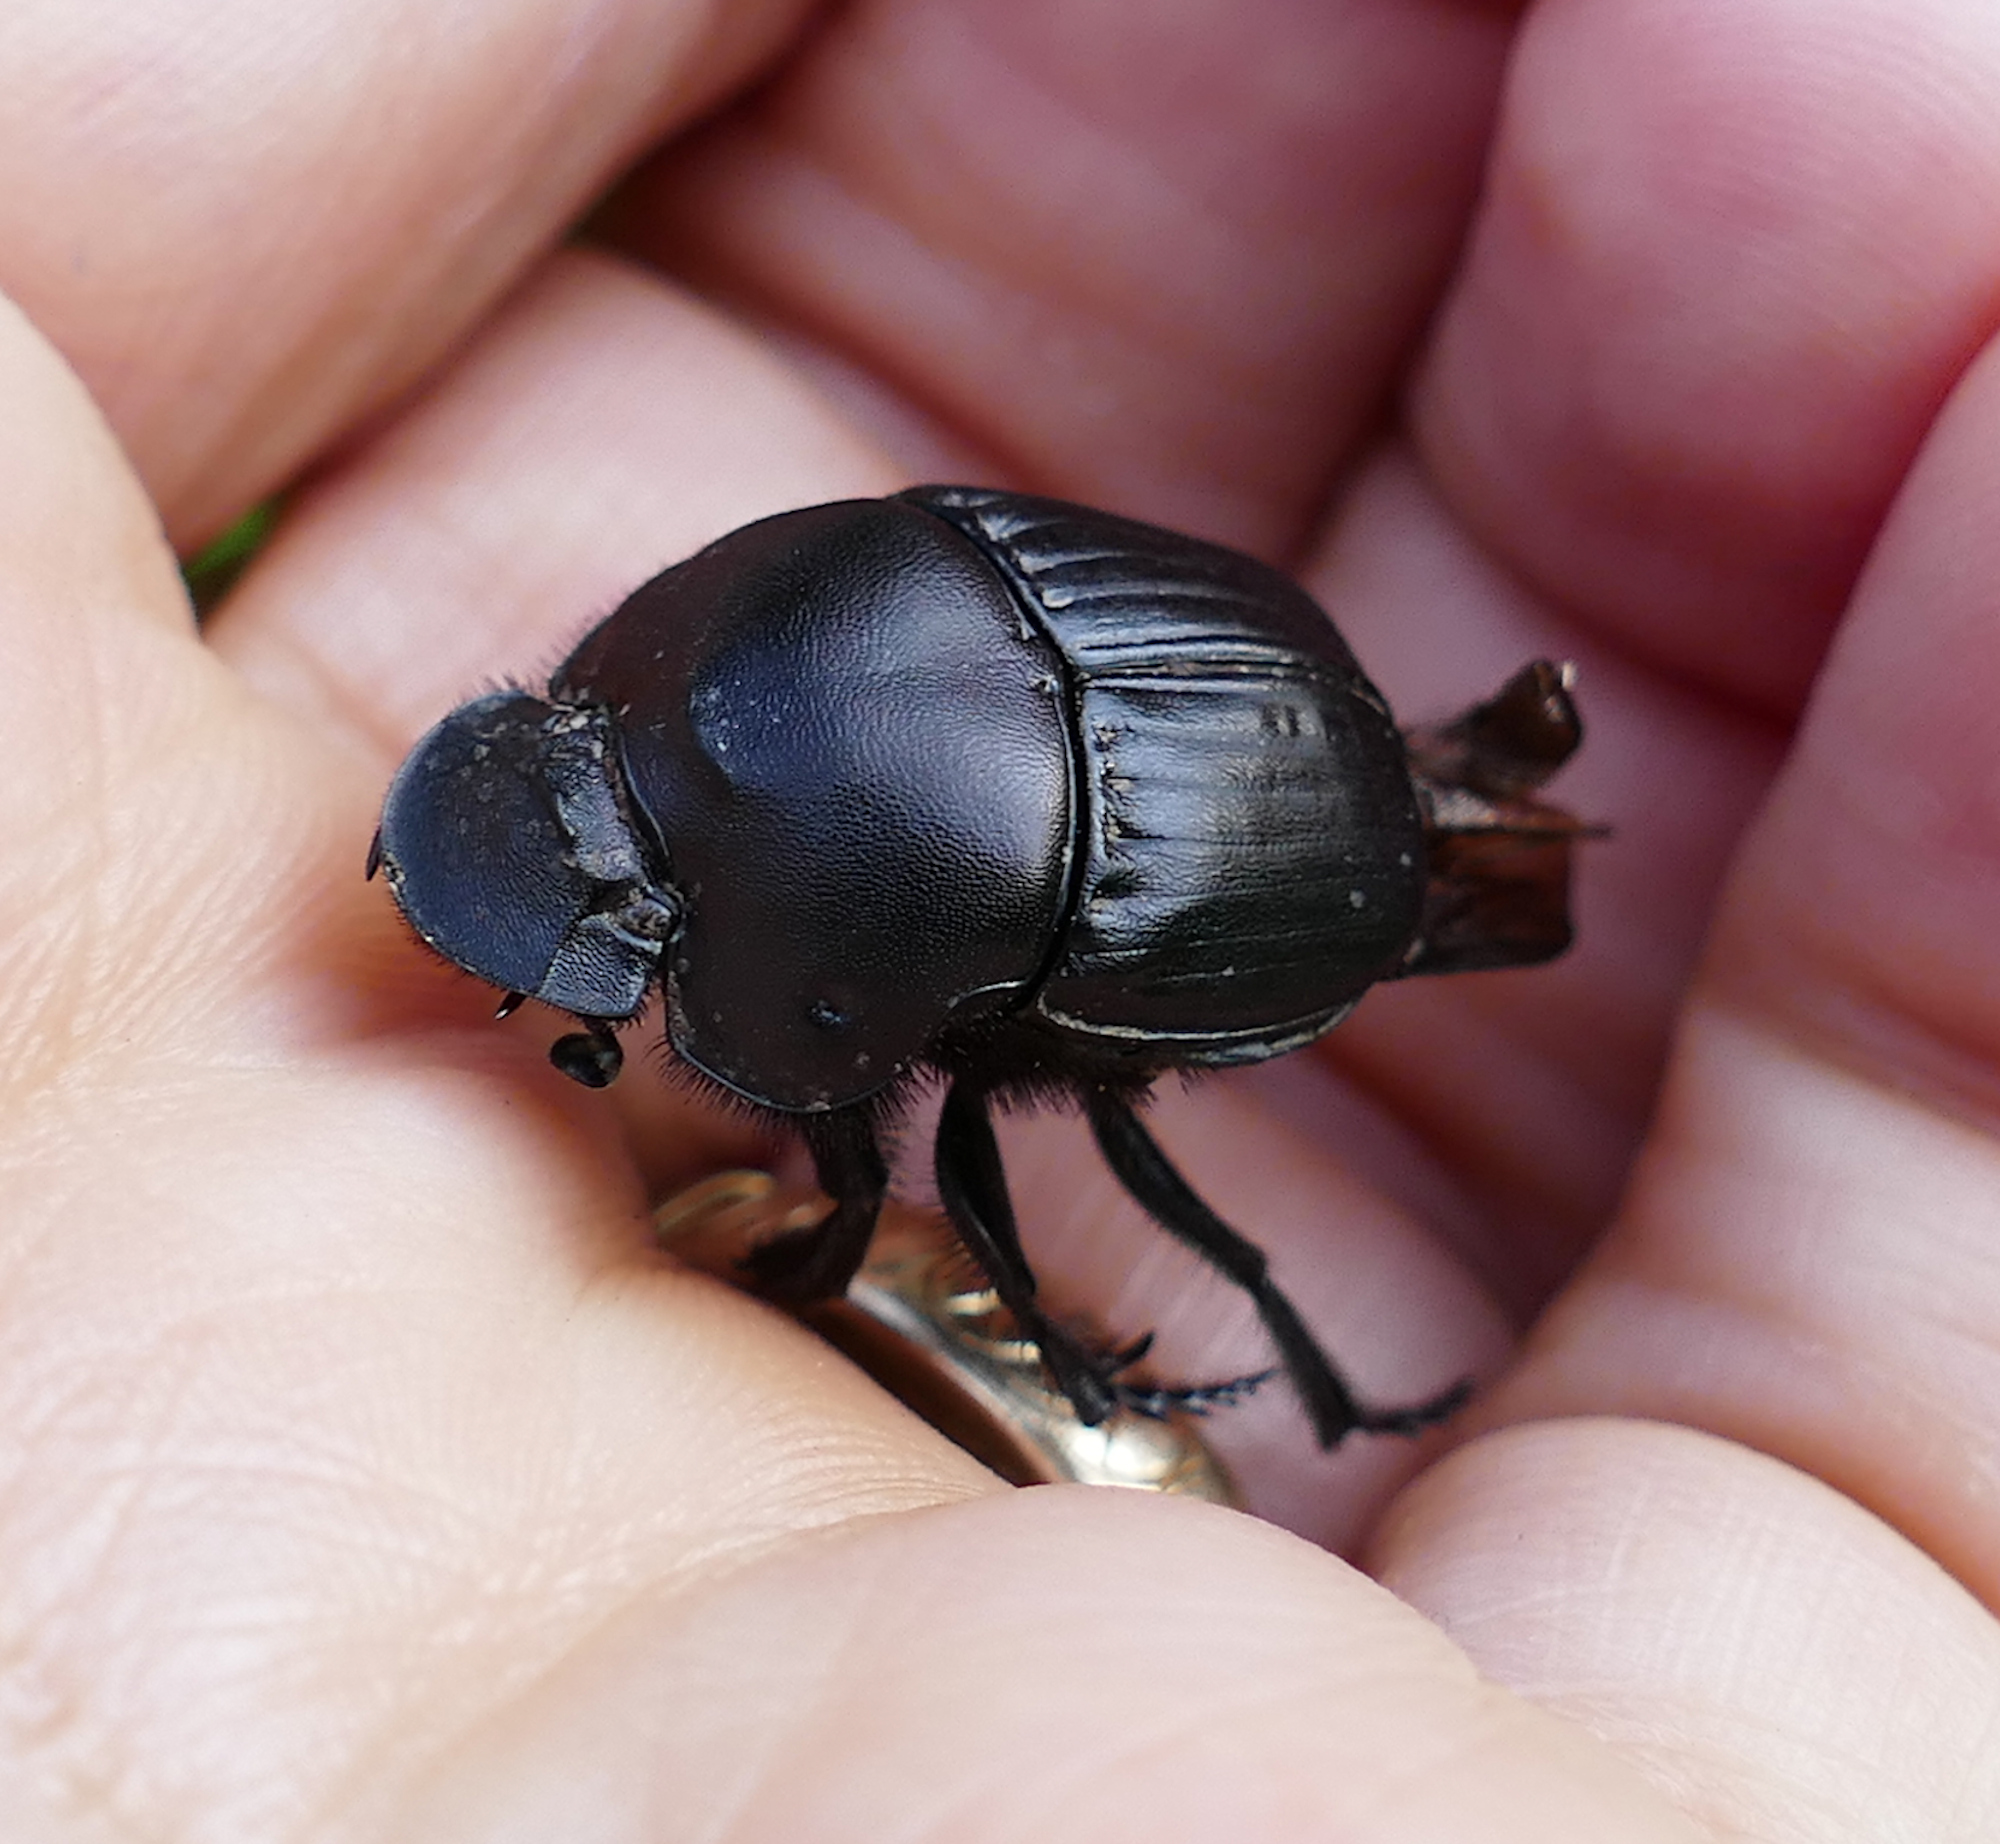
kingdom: Animalia
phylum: Arthropoda
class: Insecta
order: Coleoptera
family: Scarabaeidae
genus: Phanaeus
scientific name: Phanaeus texensis
